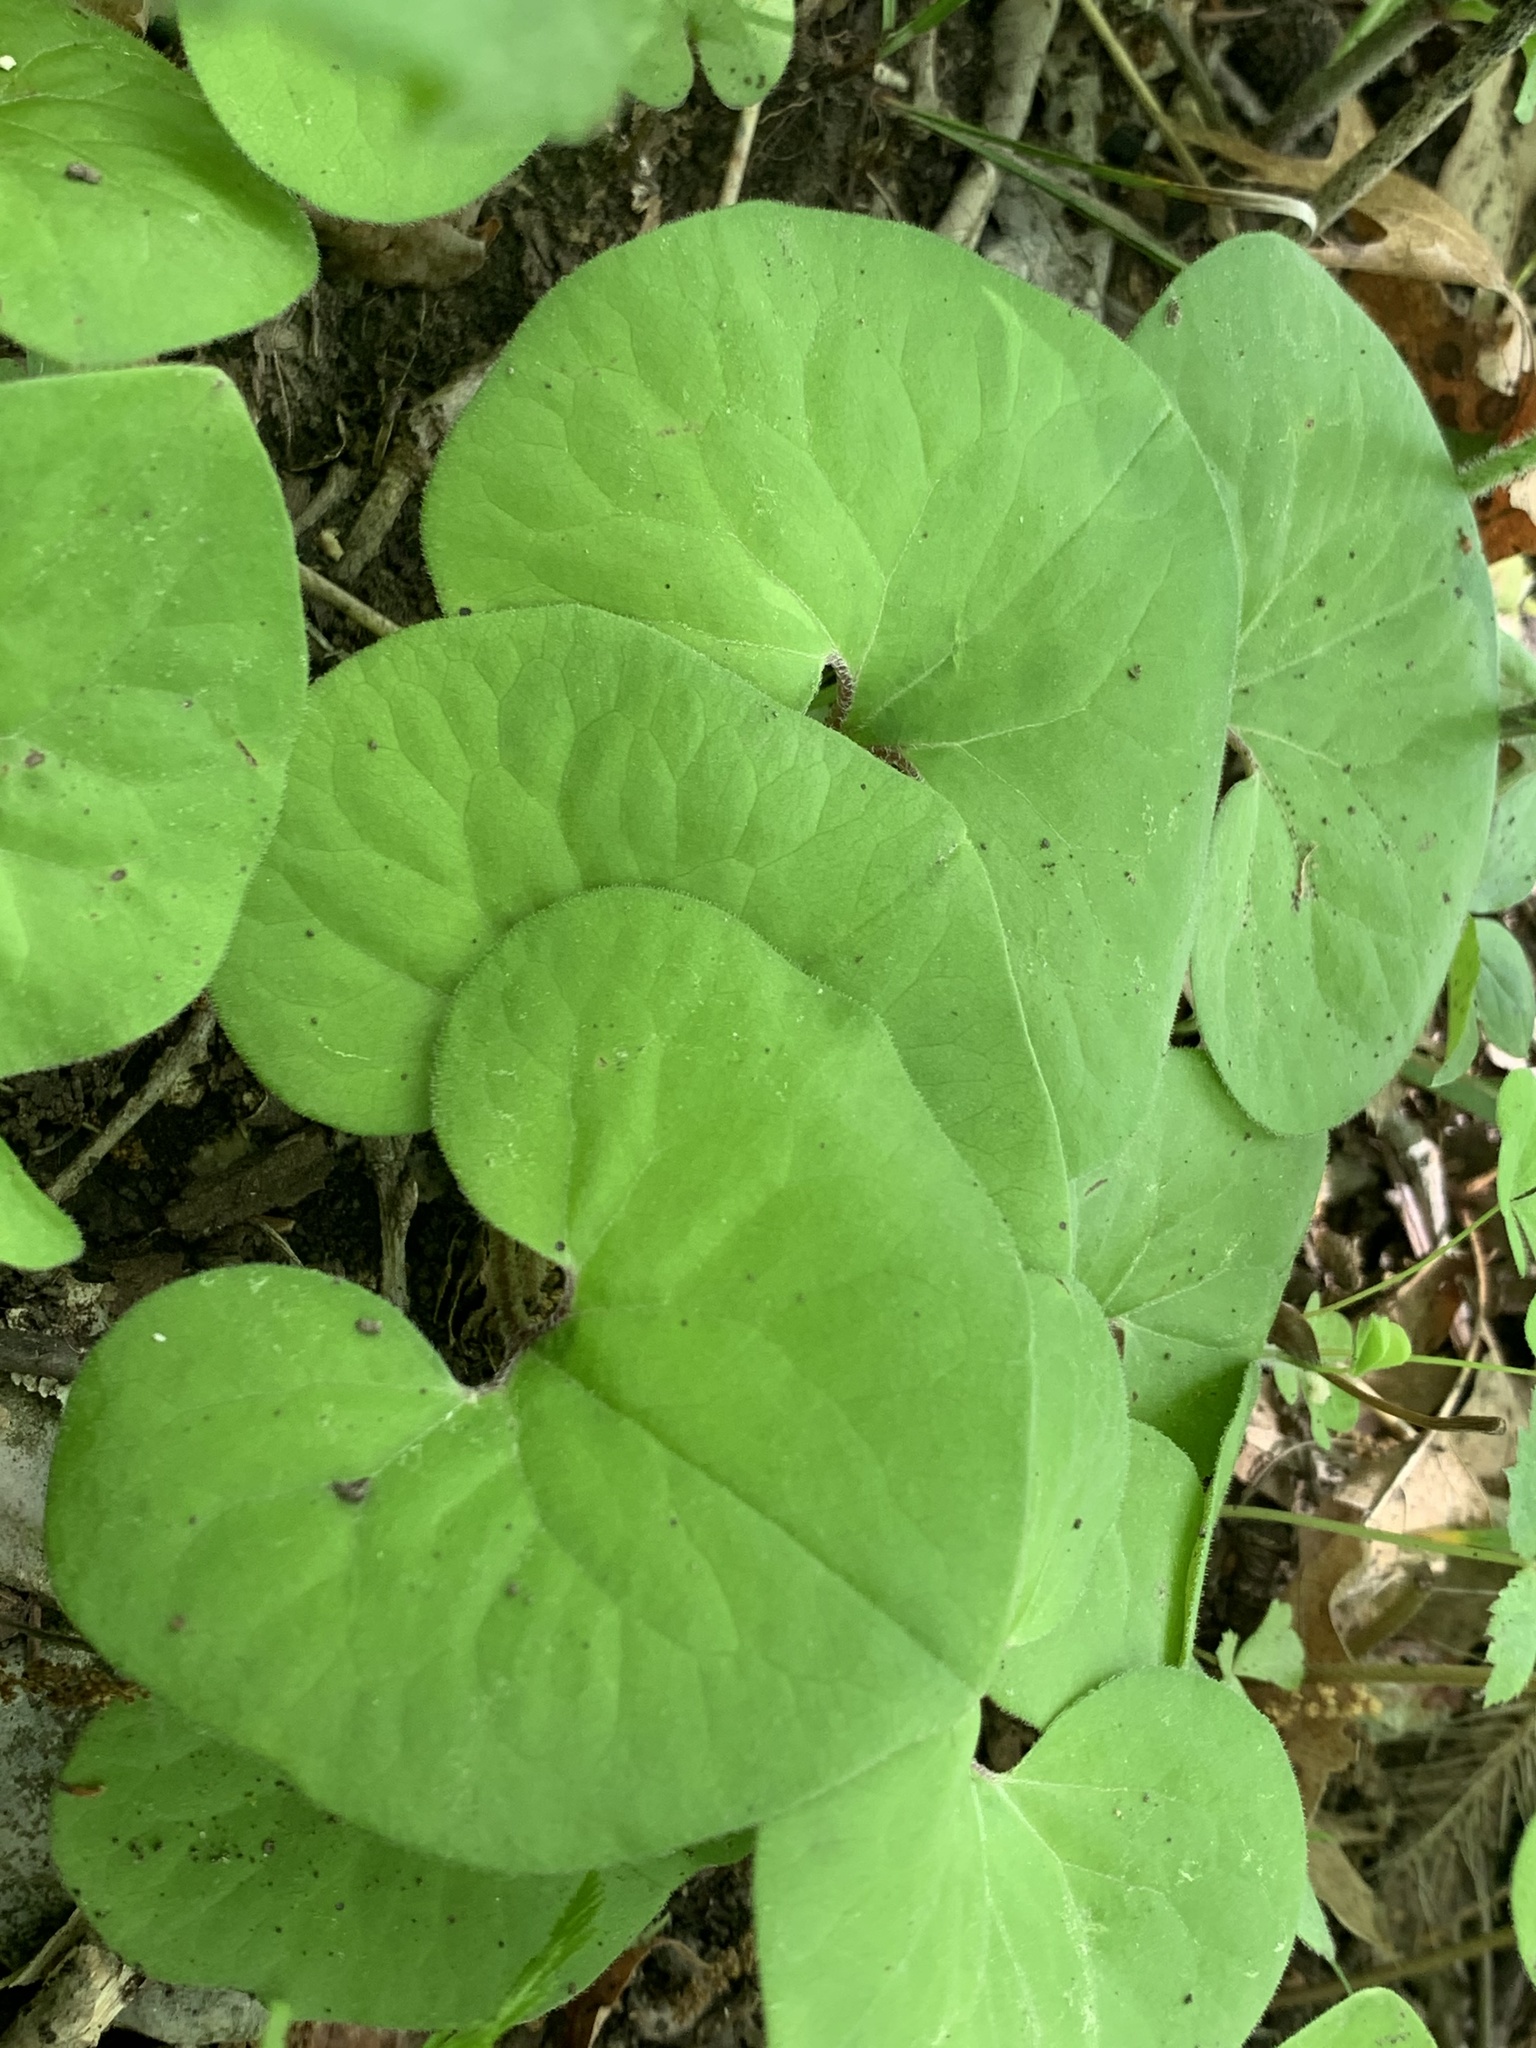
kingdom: Plantae
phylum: Tracheophyta
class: Magnoliopsida
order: Piperales
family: Aristolochiaceae
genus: Asarum
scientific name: Asarum canadense
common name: Wild ginger
